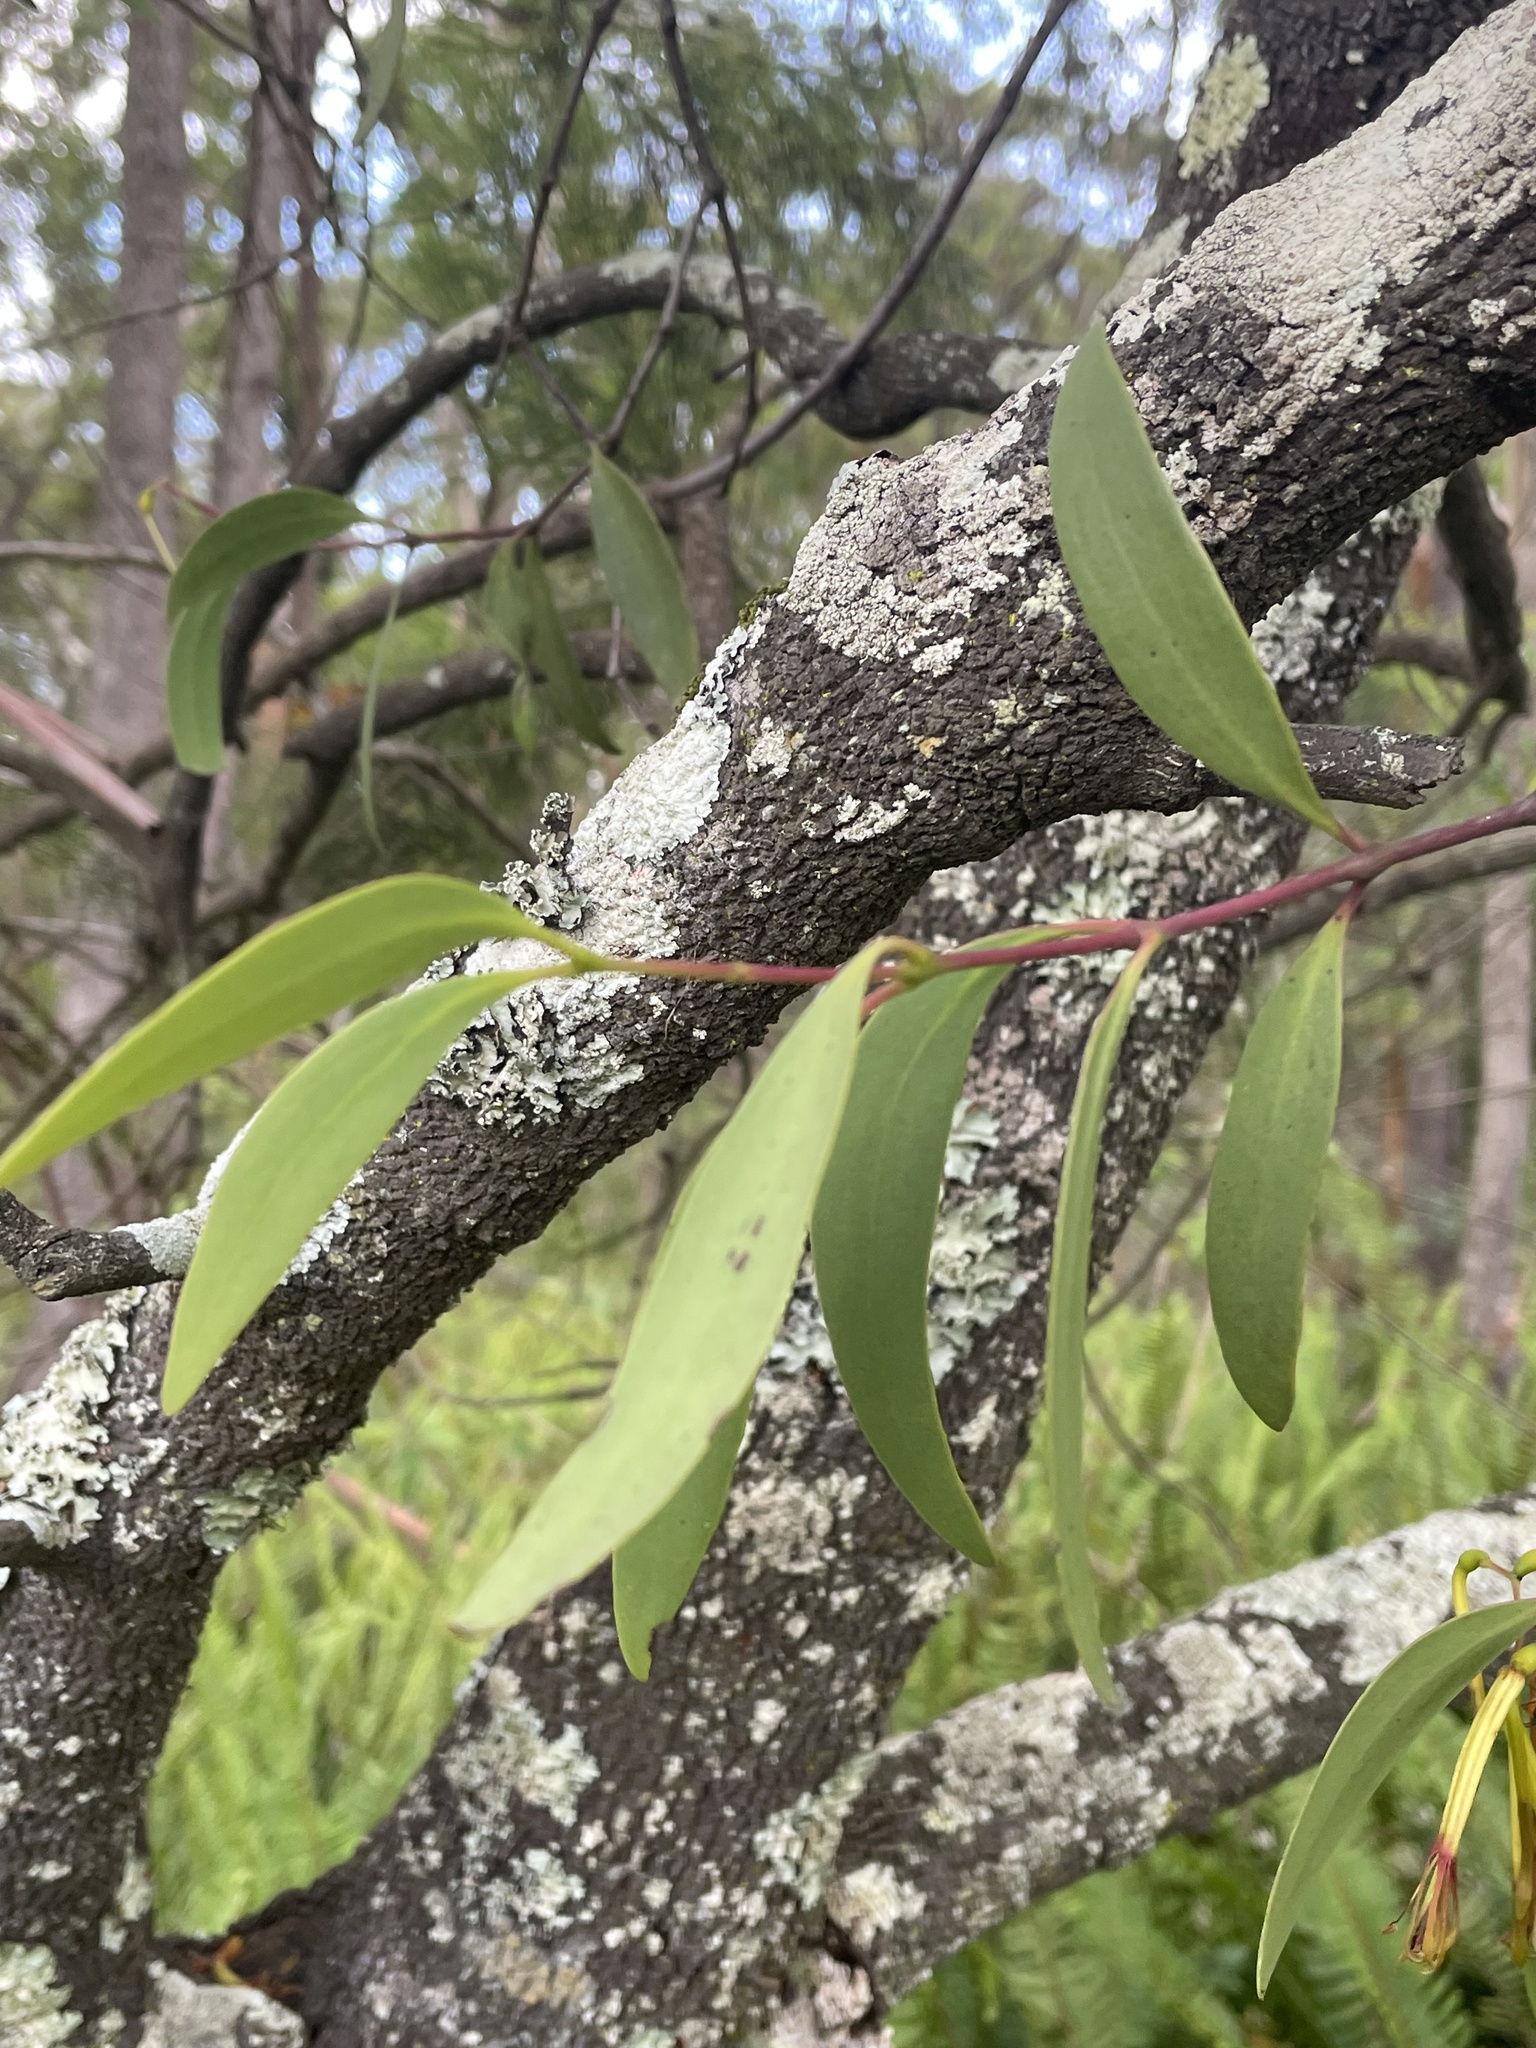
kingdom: Plantae
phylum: Tracheophyta
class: Magnoliopsida
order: Santalales
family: Loranthaceae
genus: Muellerina
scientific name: Muellerina eucalyptoides
